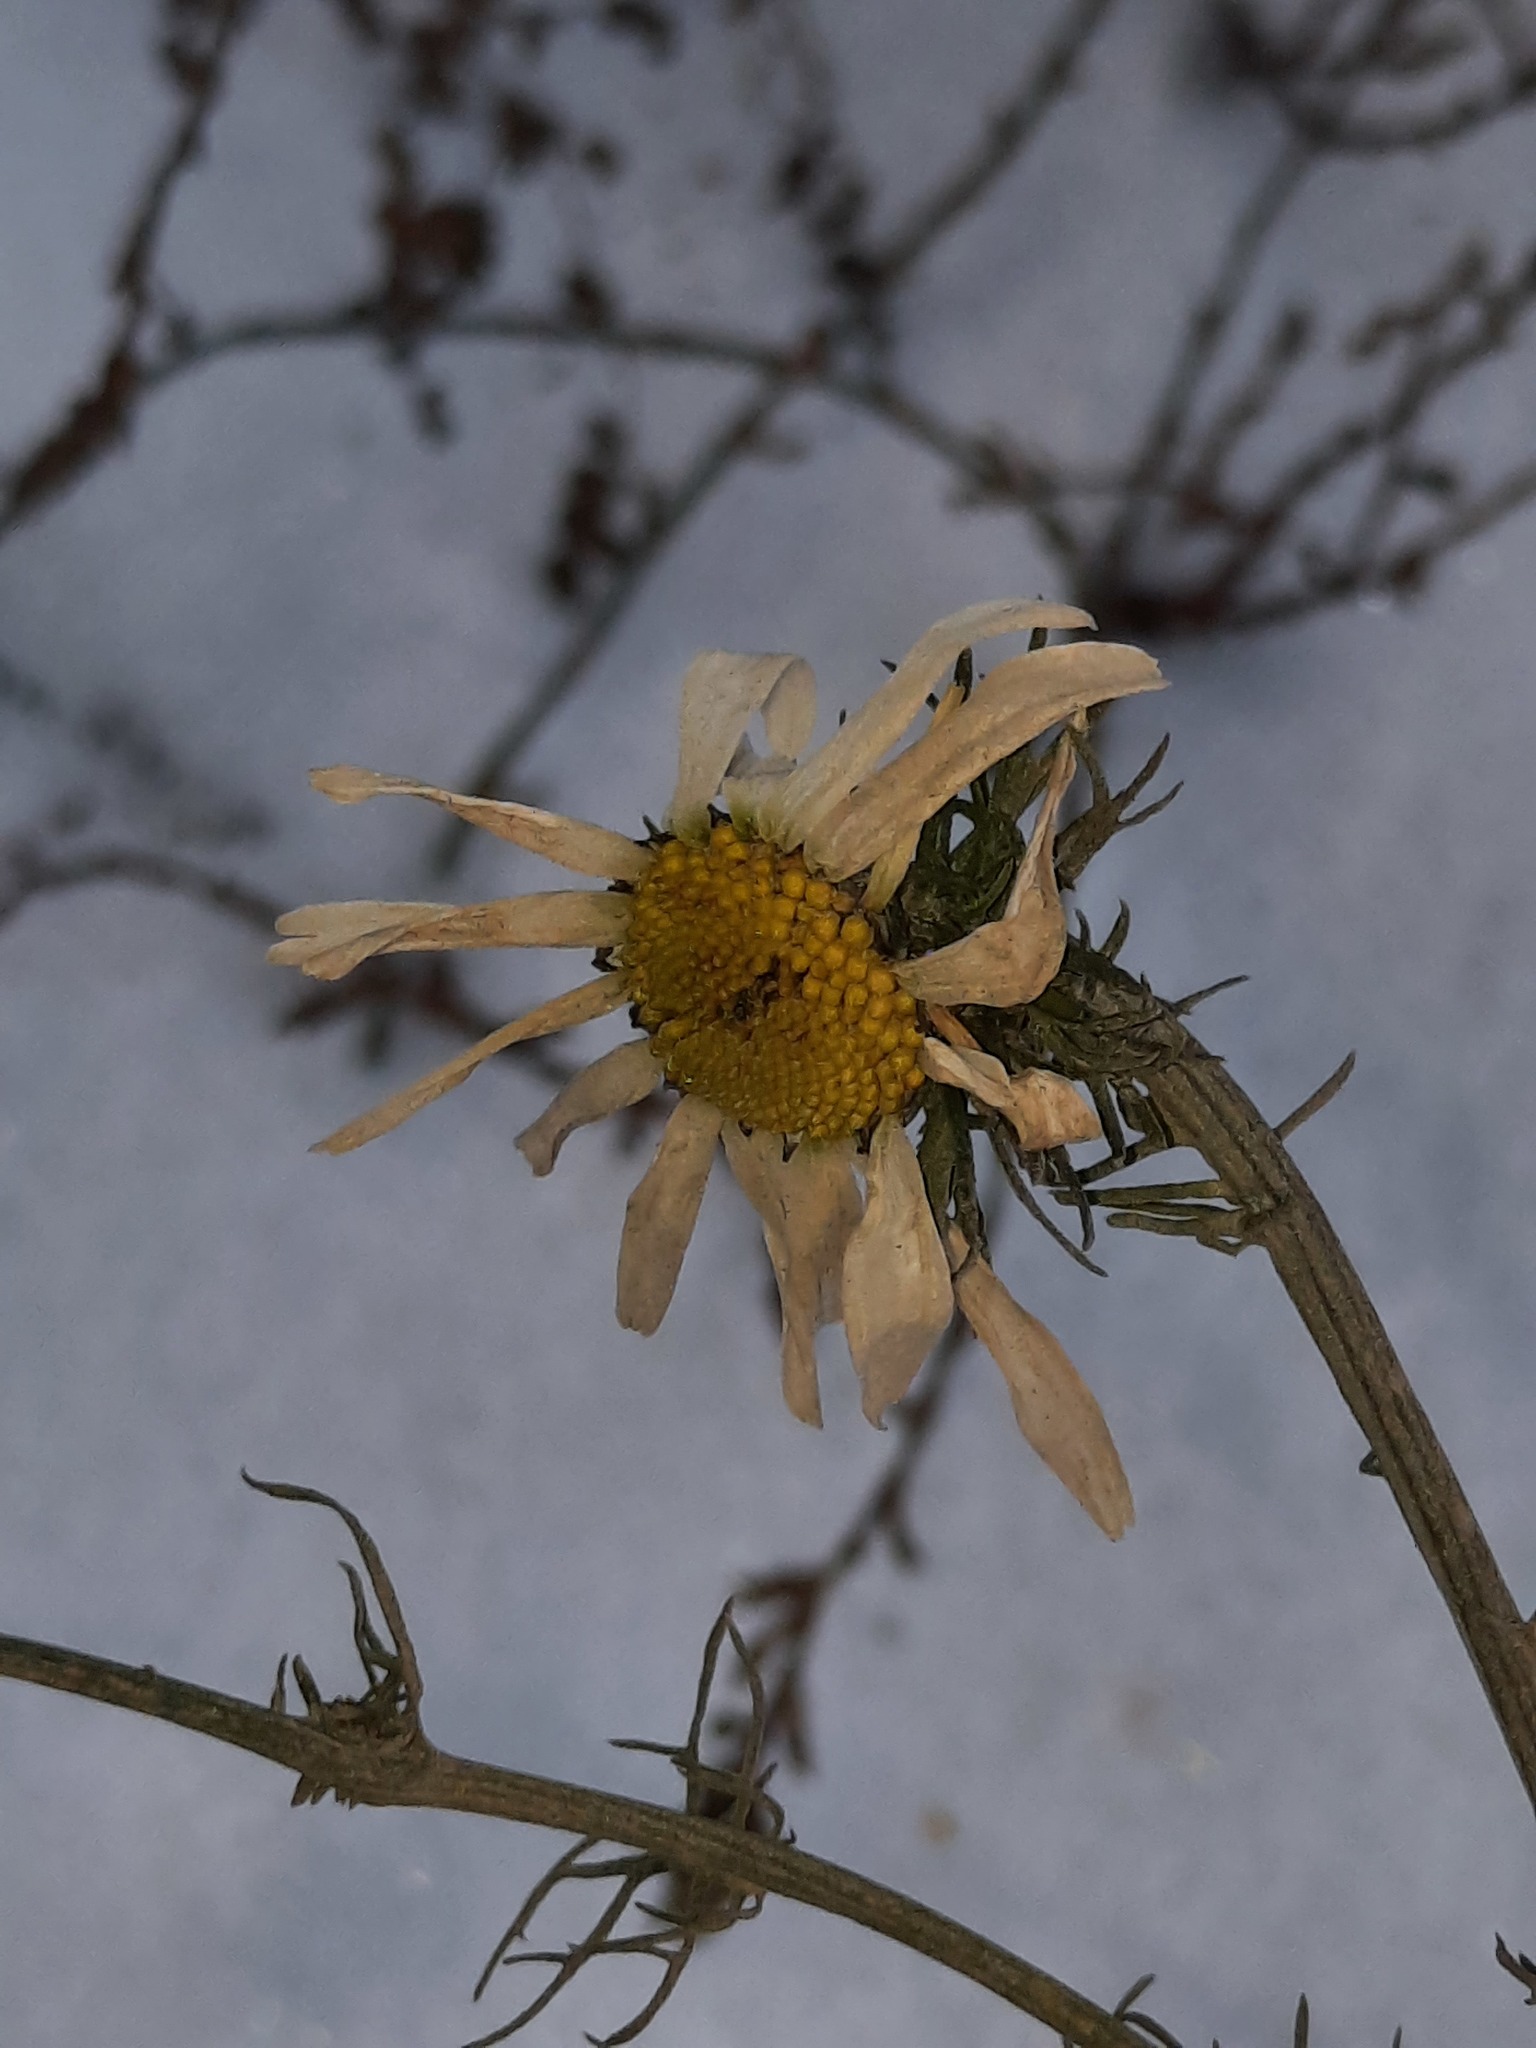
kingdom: Plantae
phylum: Tracheophyta
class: Magnoliopsida
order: Asterales
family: Asteraceae
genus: Tripleurospermum
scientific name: Tripleurospermum inodorum
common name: Scentless mayweed
